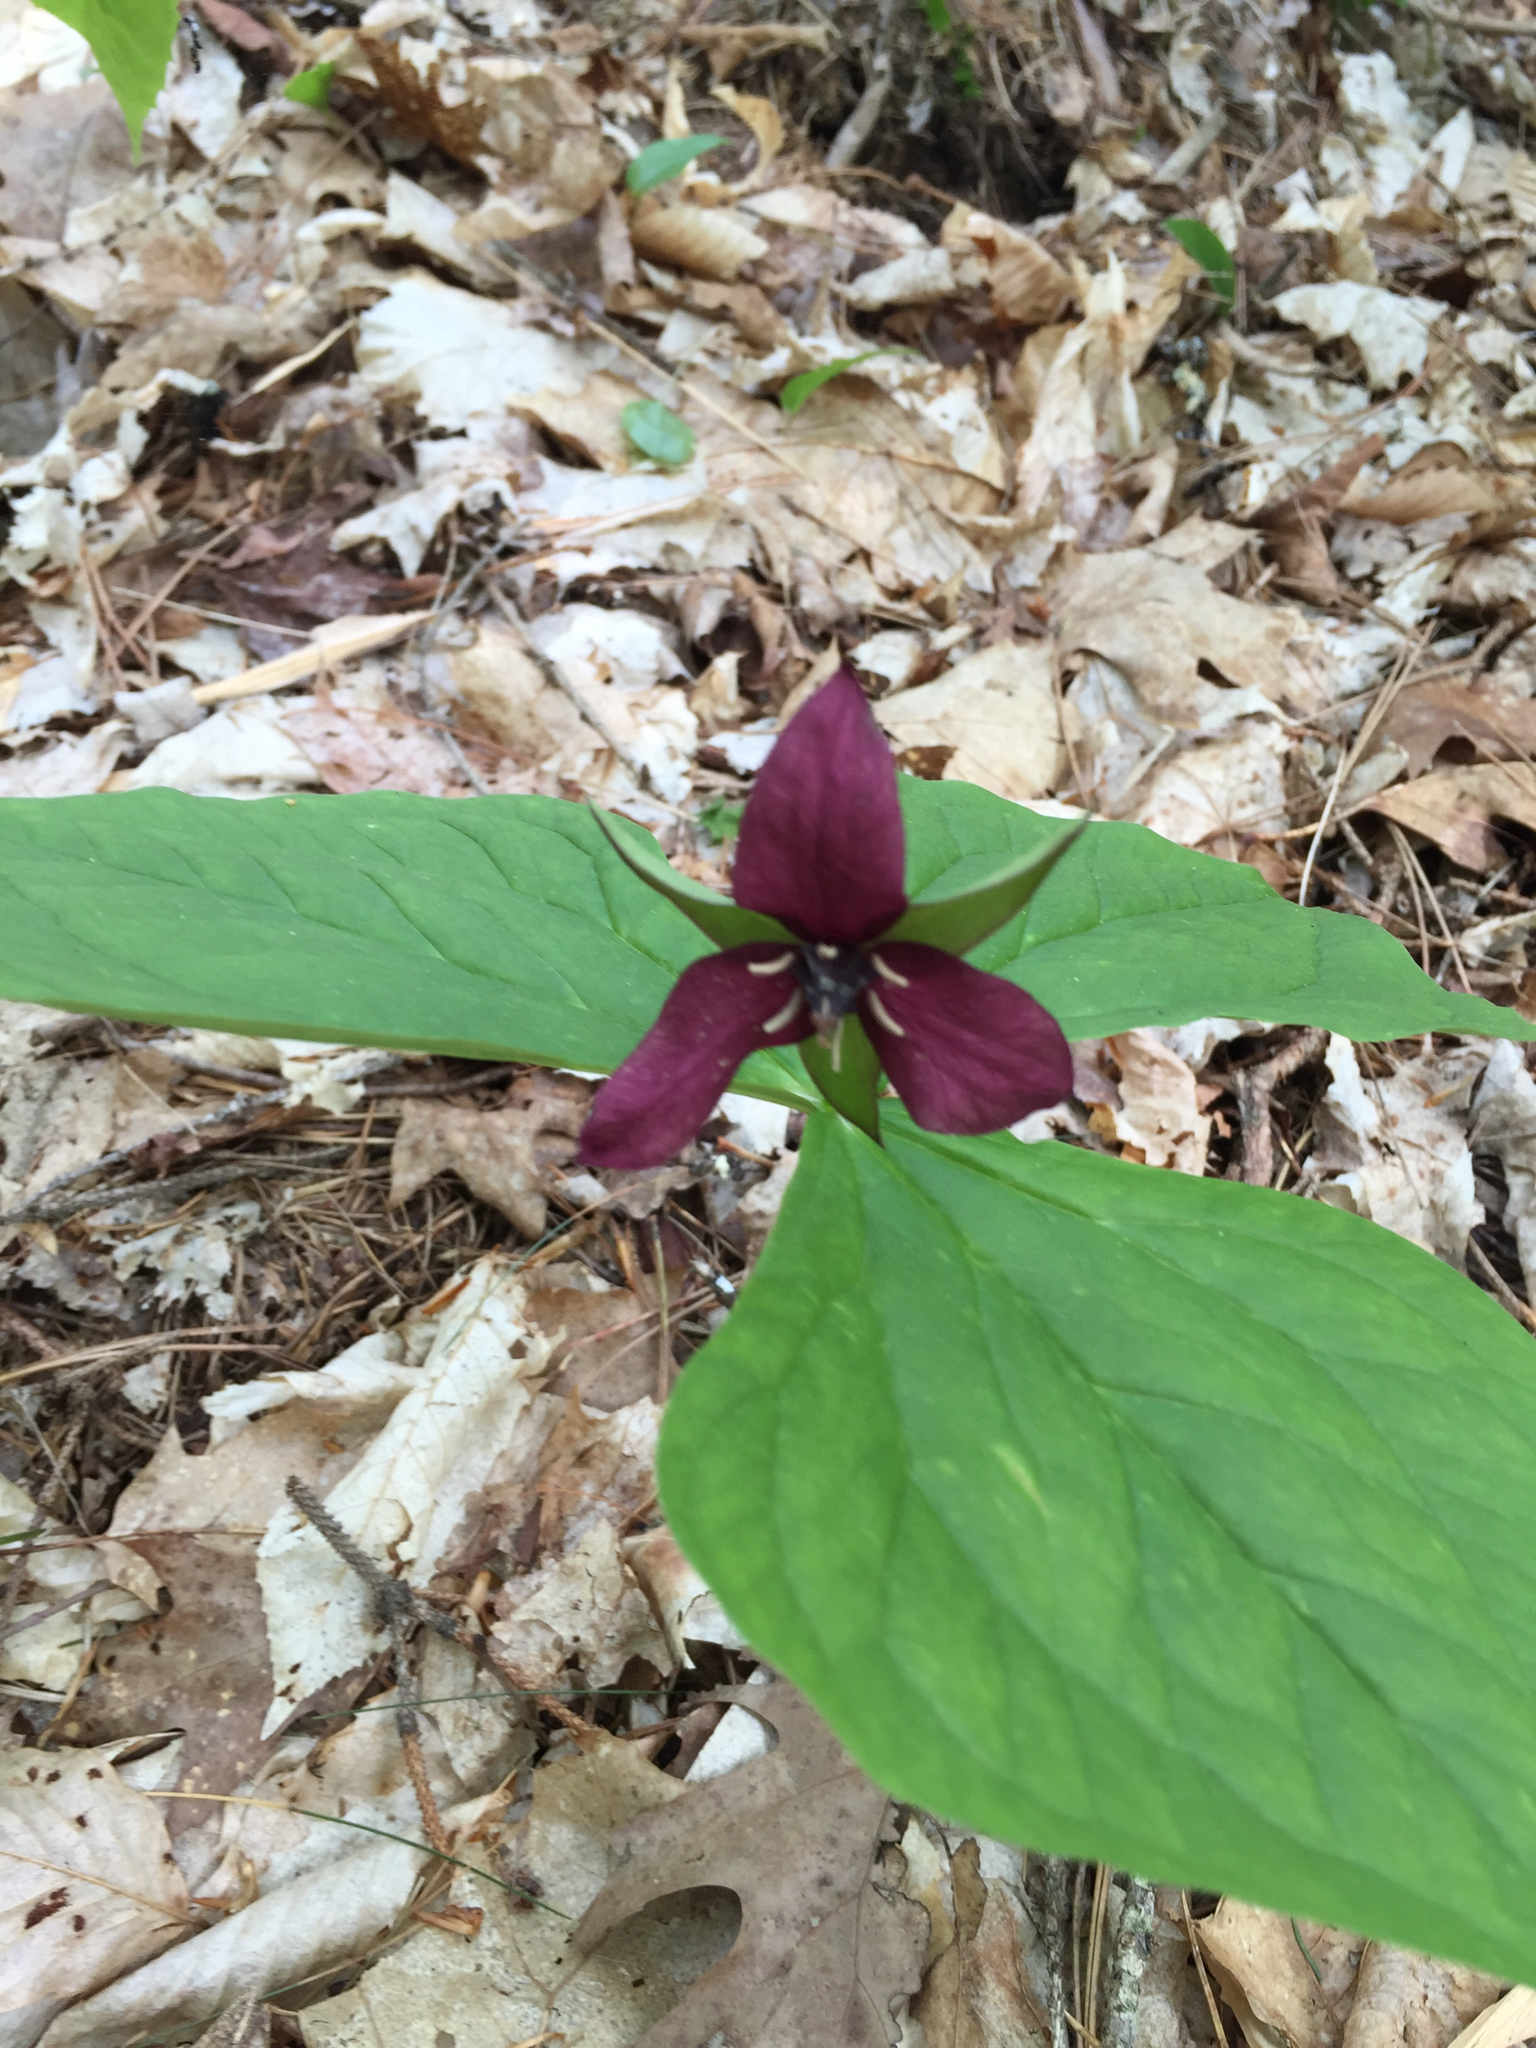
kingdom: Plantae
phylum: Tracheophyta
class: Liliopsida
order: Liliales
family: Melanthiaceae
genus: Trillium
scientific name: Trillium erectum
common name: Purple trillium
